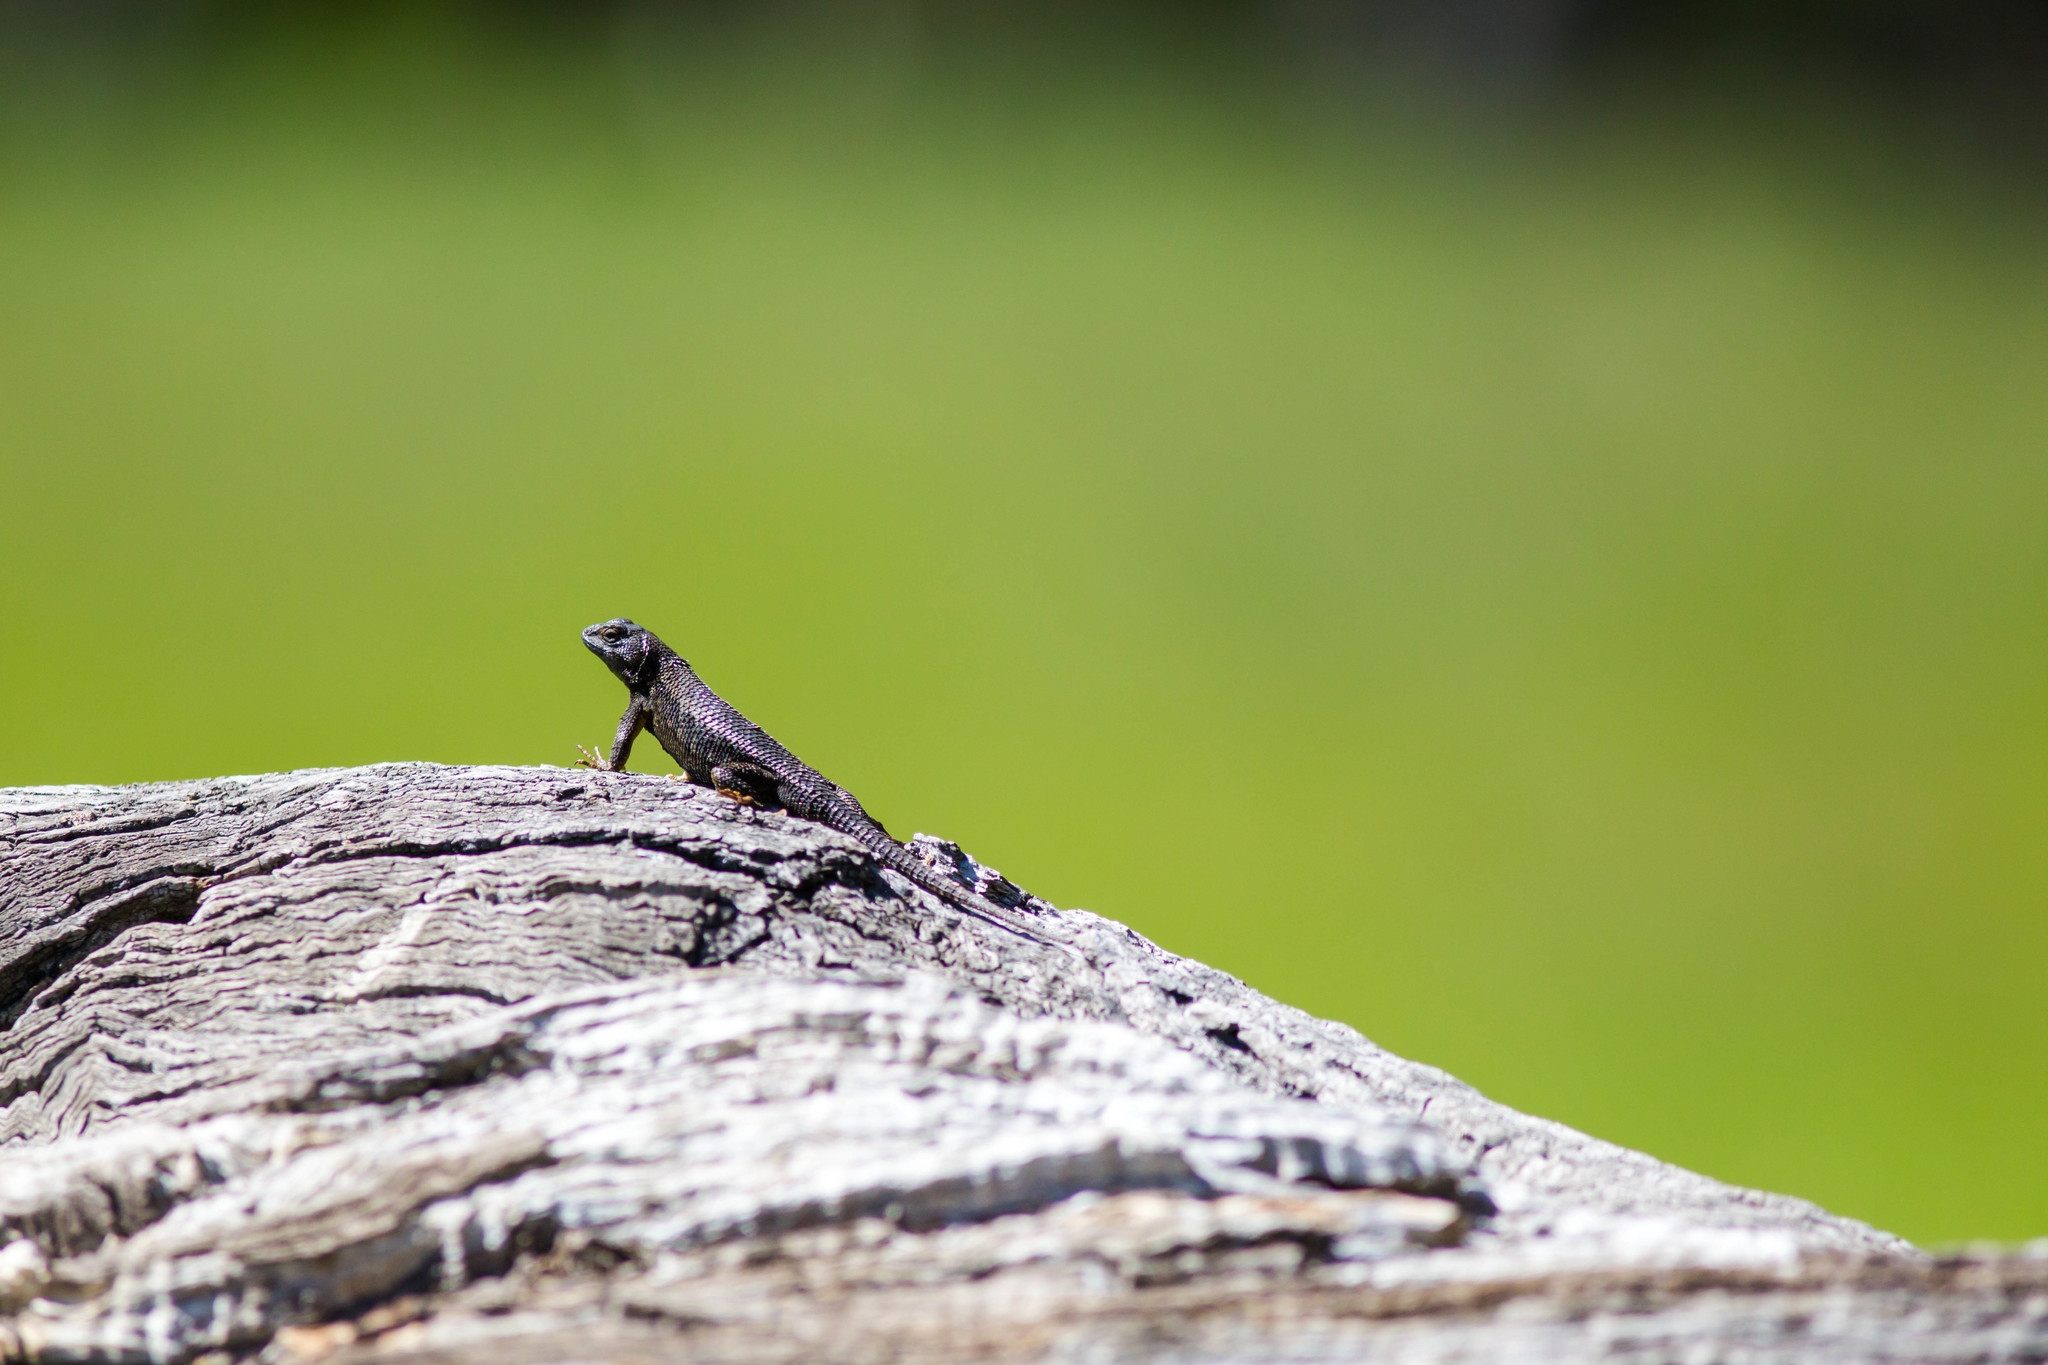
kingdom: Animalia
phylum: Chordata
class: Squamata
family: Phrynosomatidae
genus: Sceloporus
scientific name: Sceloporus occidentalis
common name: Western fence lizard
